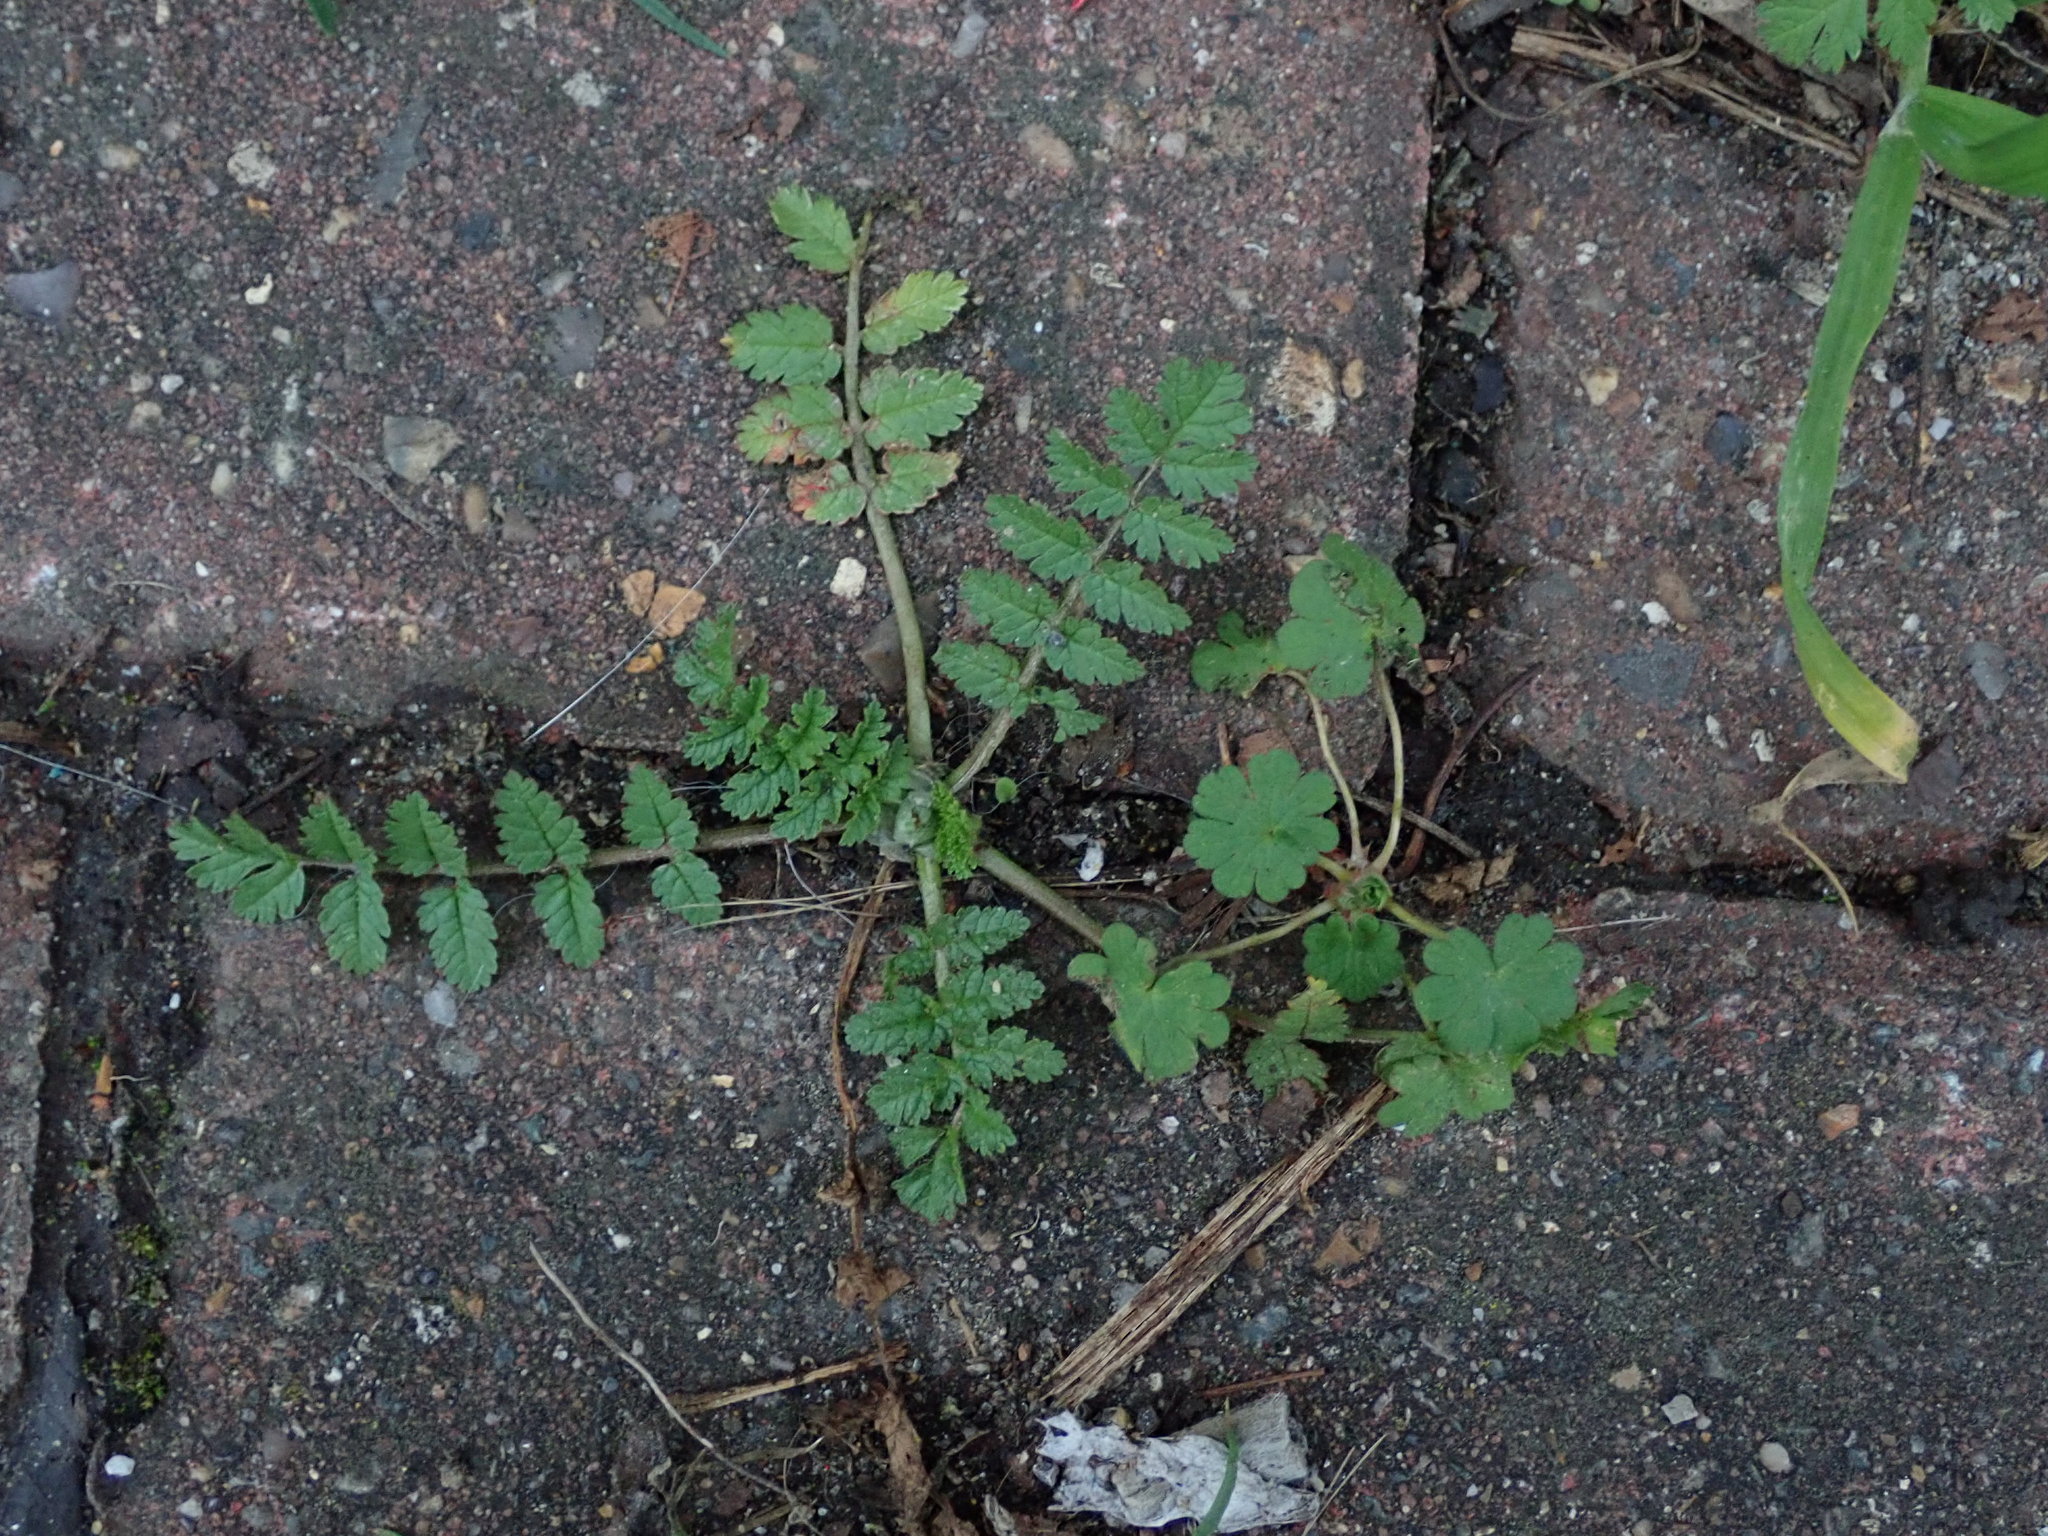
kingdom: Plantae
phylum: Tracheophyta
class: Magnoliopsida
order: Geraniales
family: Geraniaceae
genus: Erodium
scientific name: Erodium moschatum
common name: Musk stork's-bill
